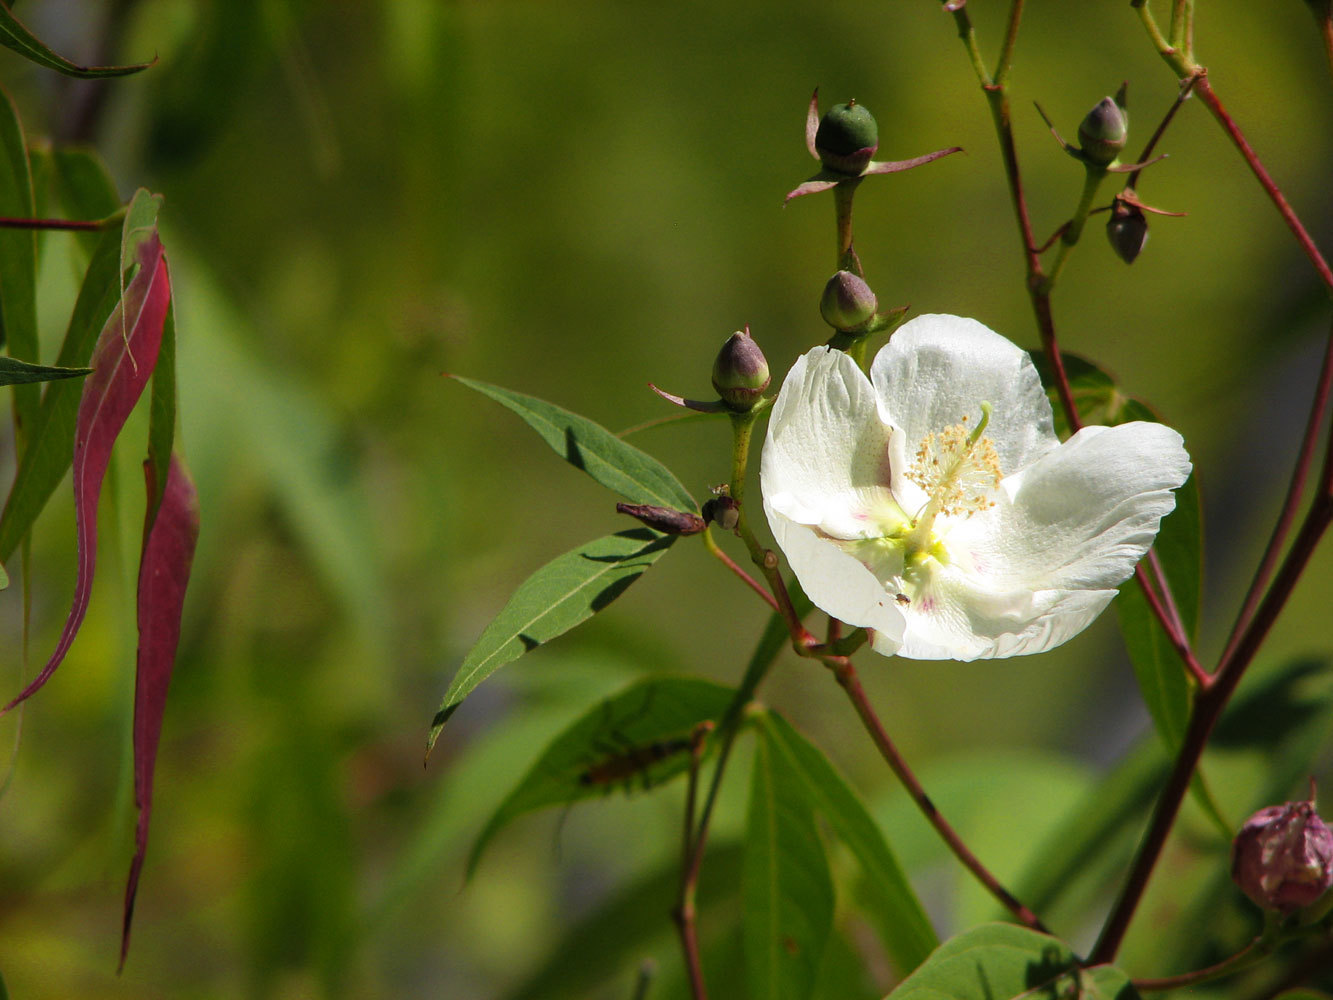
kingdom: Plantae
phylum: Tracheophyta
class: Magnoliopsida
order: Malvales
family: Malvaceae
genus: Gossypium
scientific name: Gossypium thurberi
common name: Desert cotton
